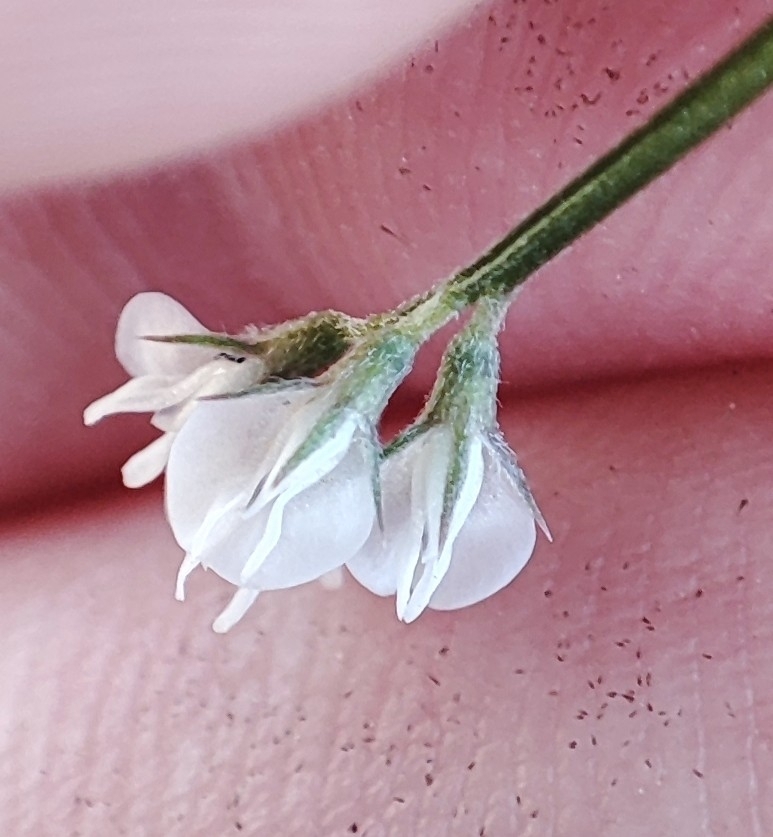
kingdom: Plantae
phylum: Tracheophyta
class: Magnoliopsida
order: Fabales
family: Fabaceae
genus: Vicia
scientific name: Vicia hirsuta
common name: Tiny vetch
